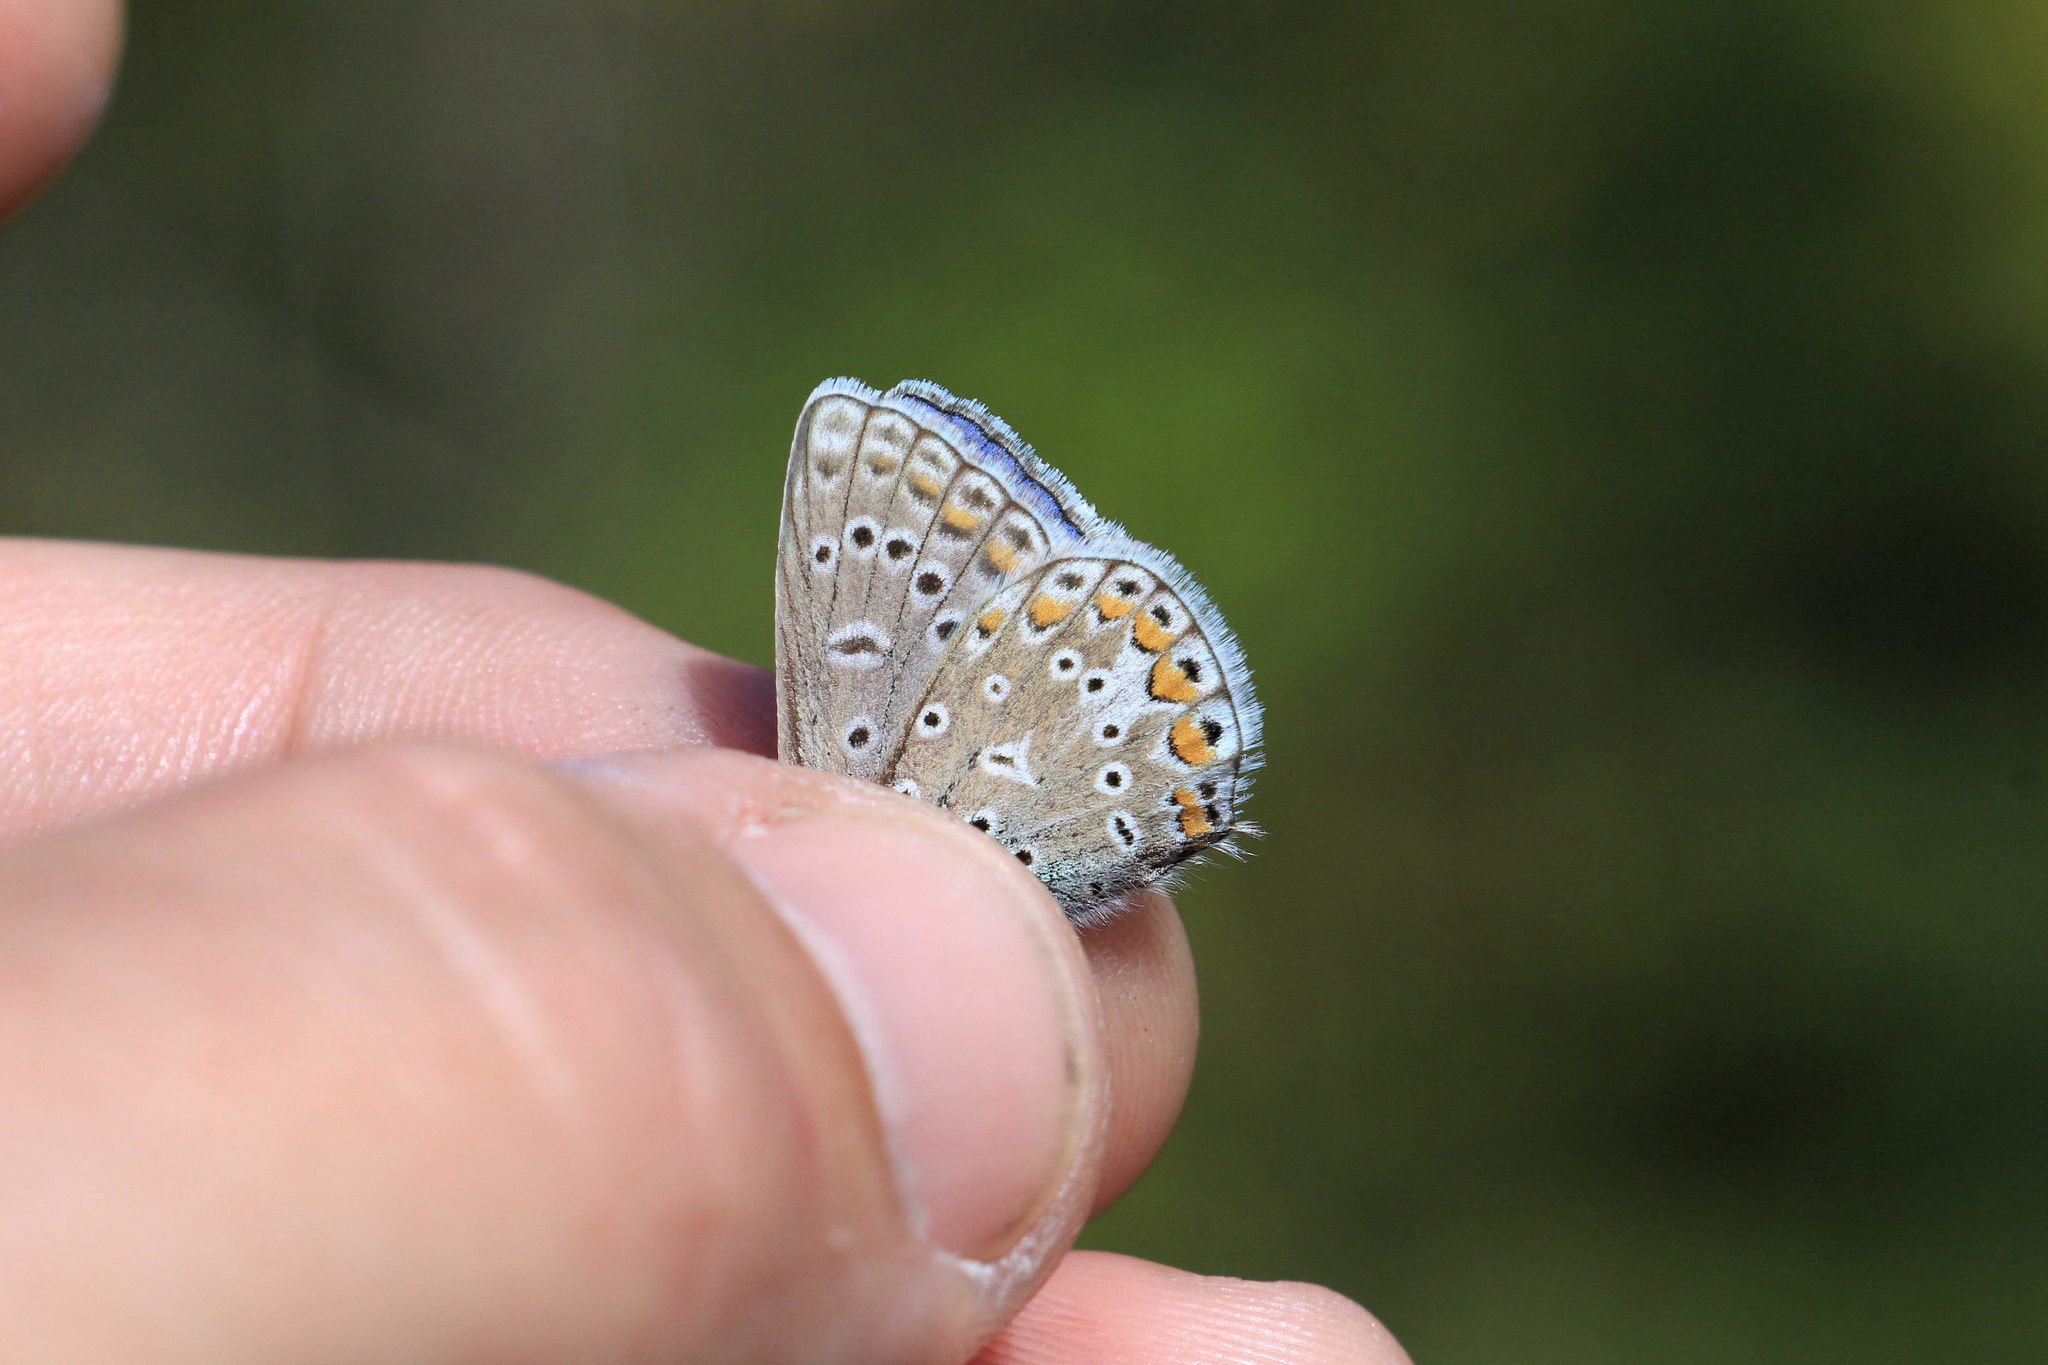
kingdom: Animalia
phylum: Arthropoda
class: Insecta
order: Lepidoptera
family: Lycaenidae
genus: Polyommatus
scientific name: Polyommatus icarus
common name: Common blue
